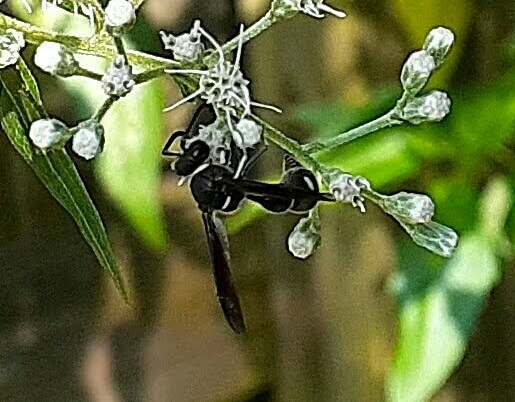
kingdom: Animalia
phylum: Arthropoda
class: Insecta
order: Hymenoptera
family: Vespidae
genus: Eumenes
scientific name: Eumenes fraternus
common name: Fraternal potter wasp
